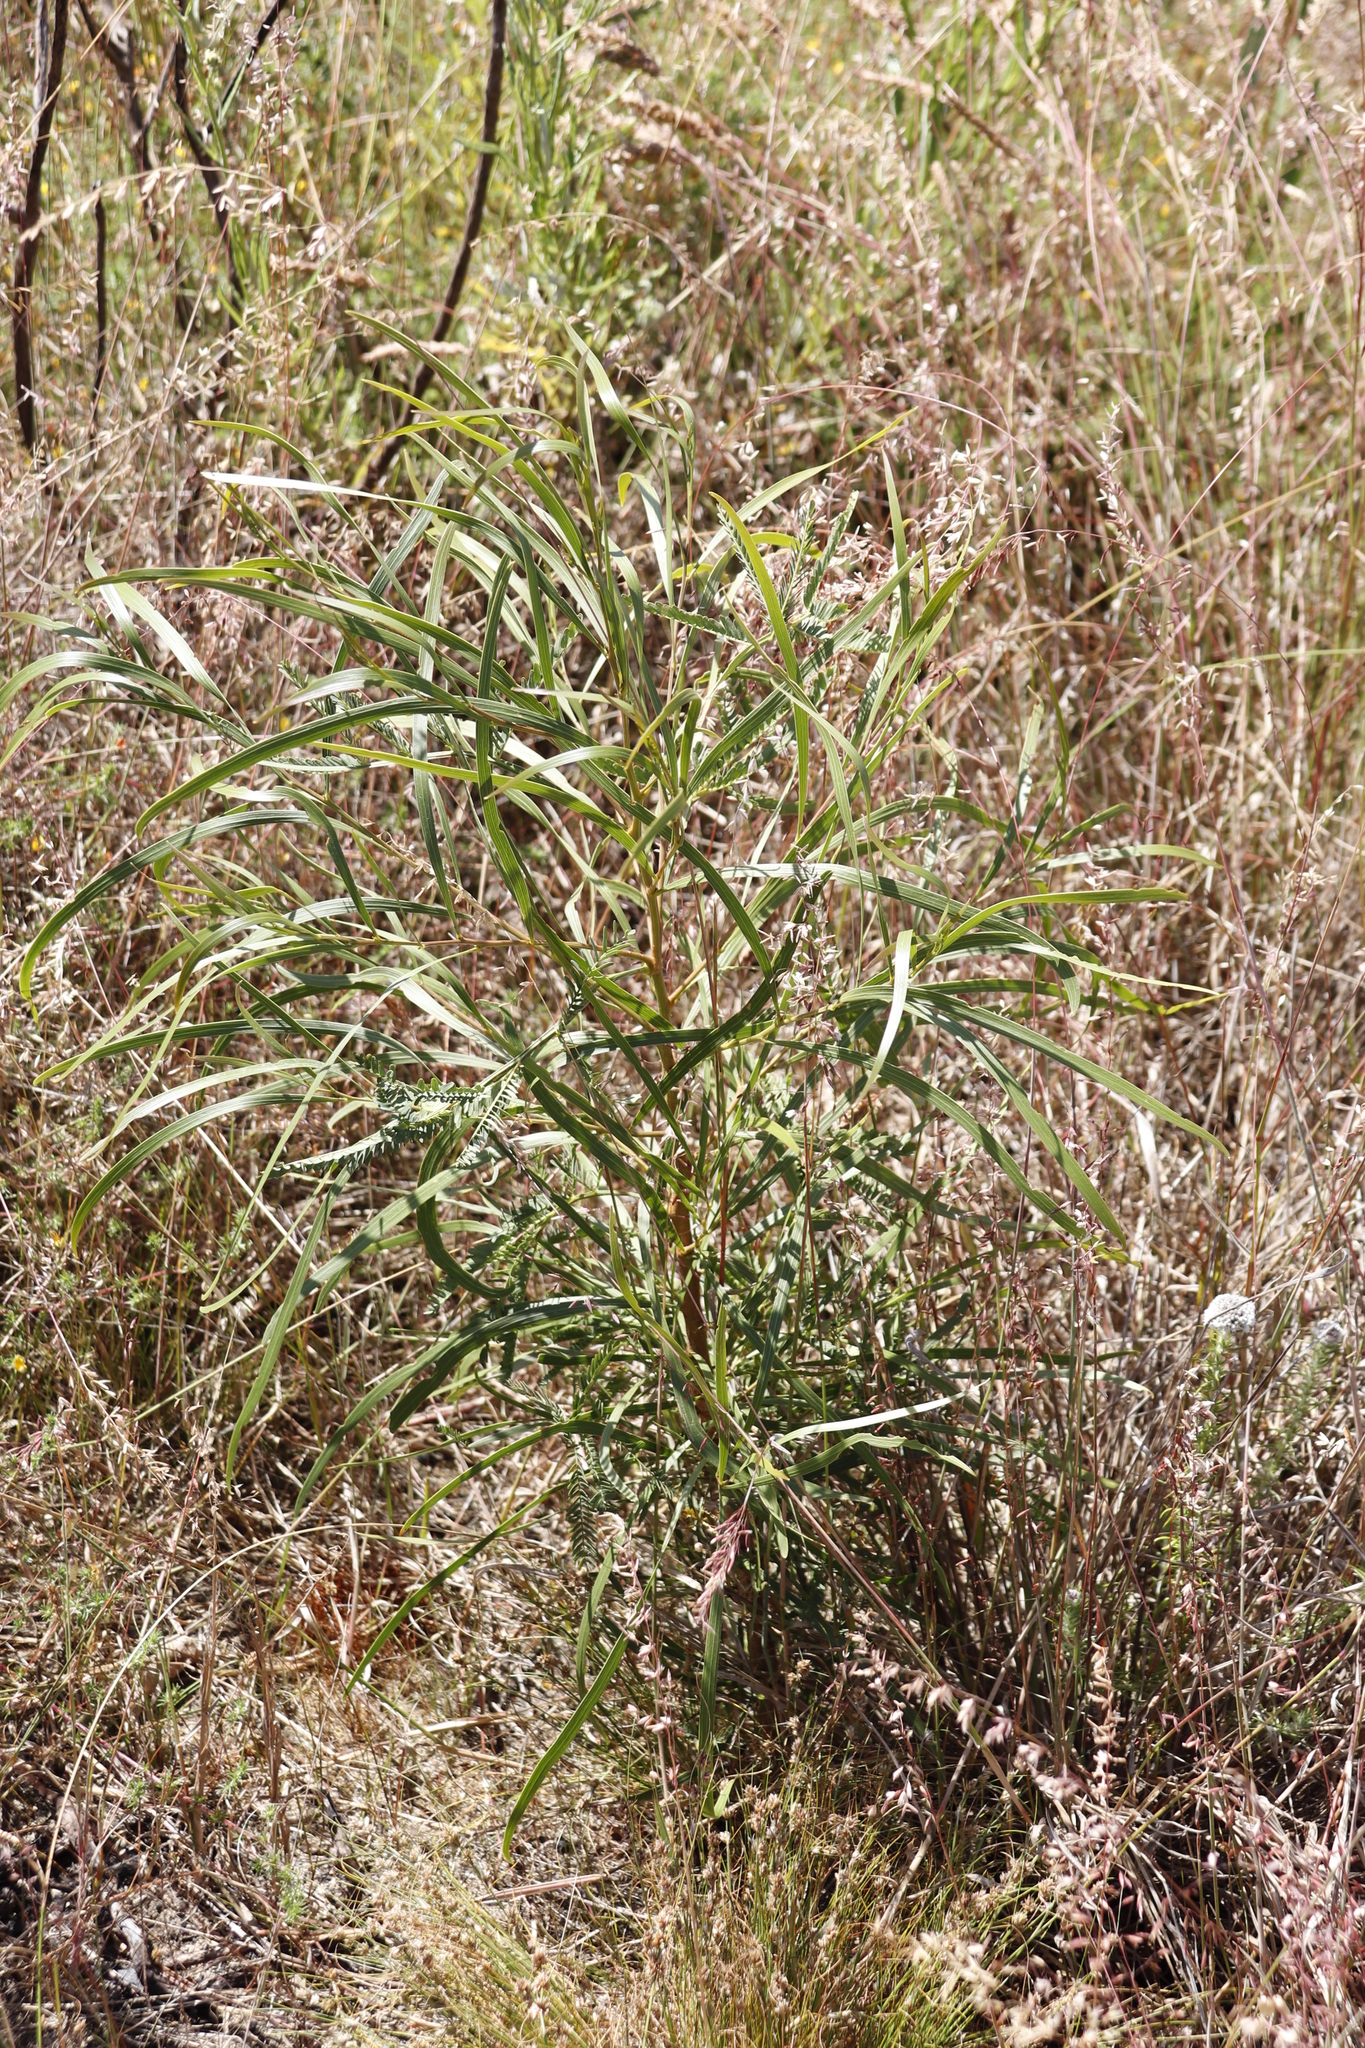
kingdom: Plantae
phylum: Tracheophyta
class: Magnoliopsida
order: Fabales
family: Fabaceae
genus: Acacia
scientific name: Acacia implexa
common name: Black wattle
